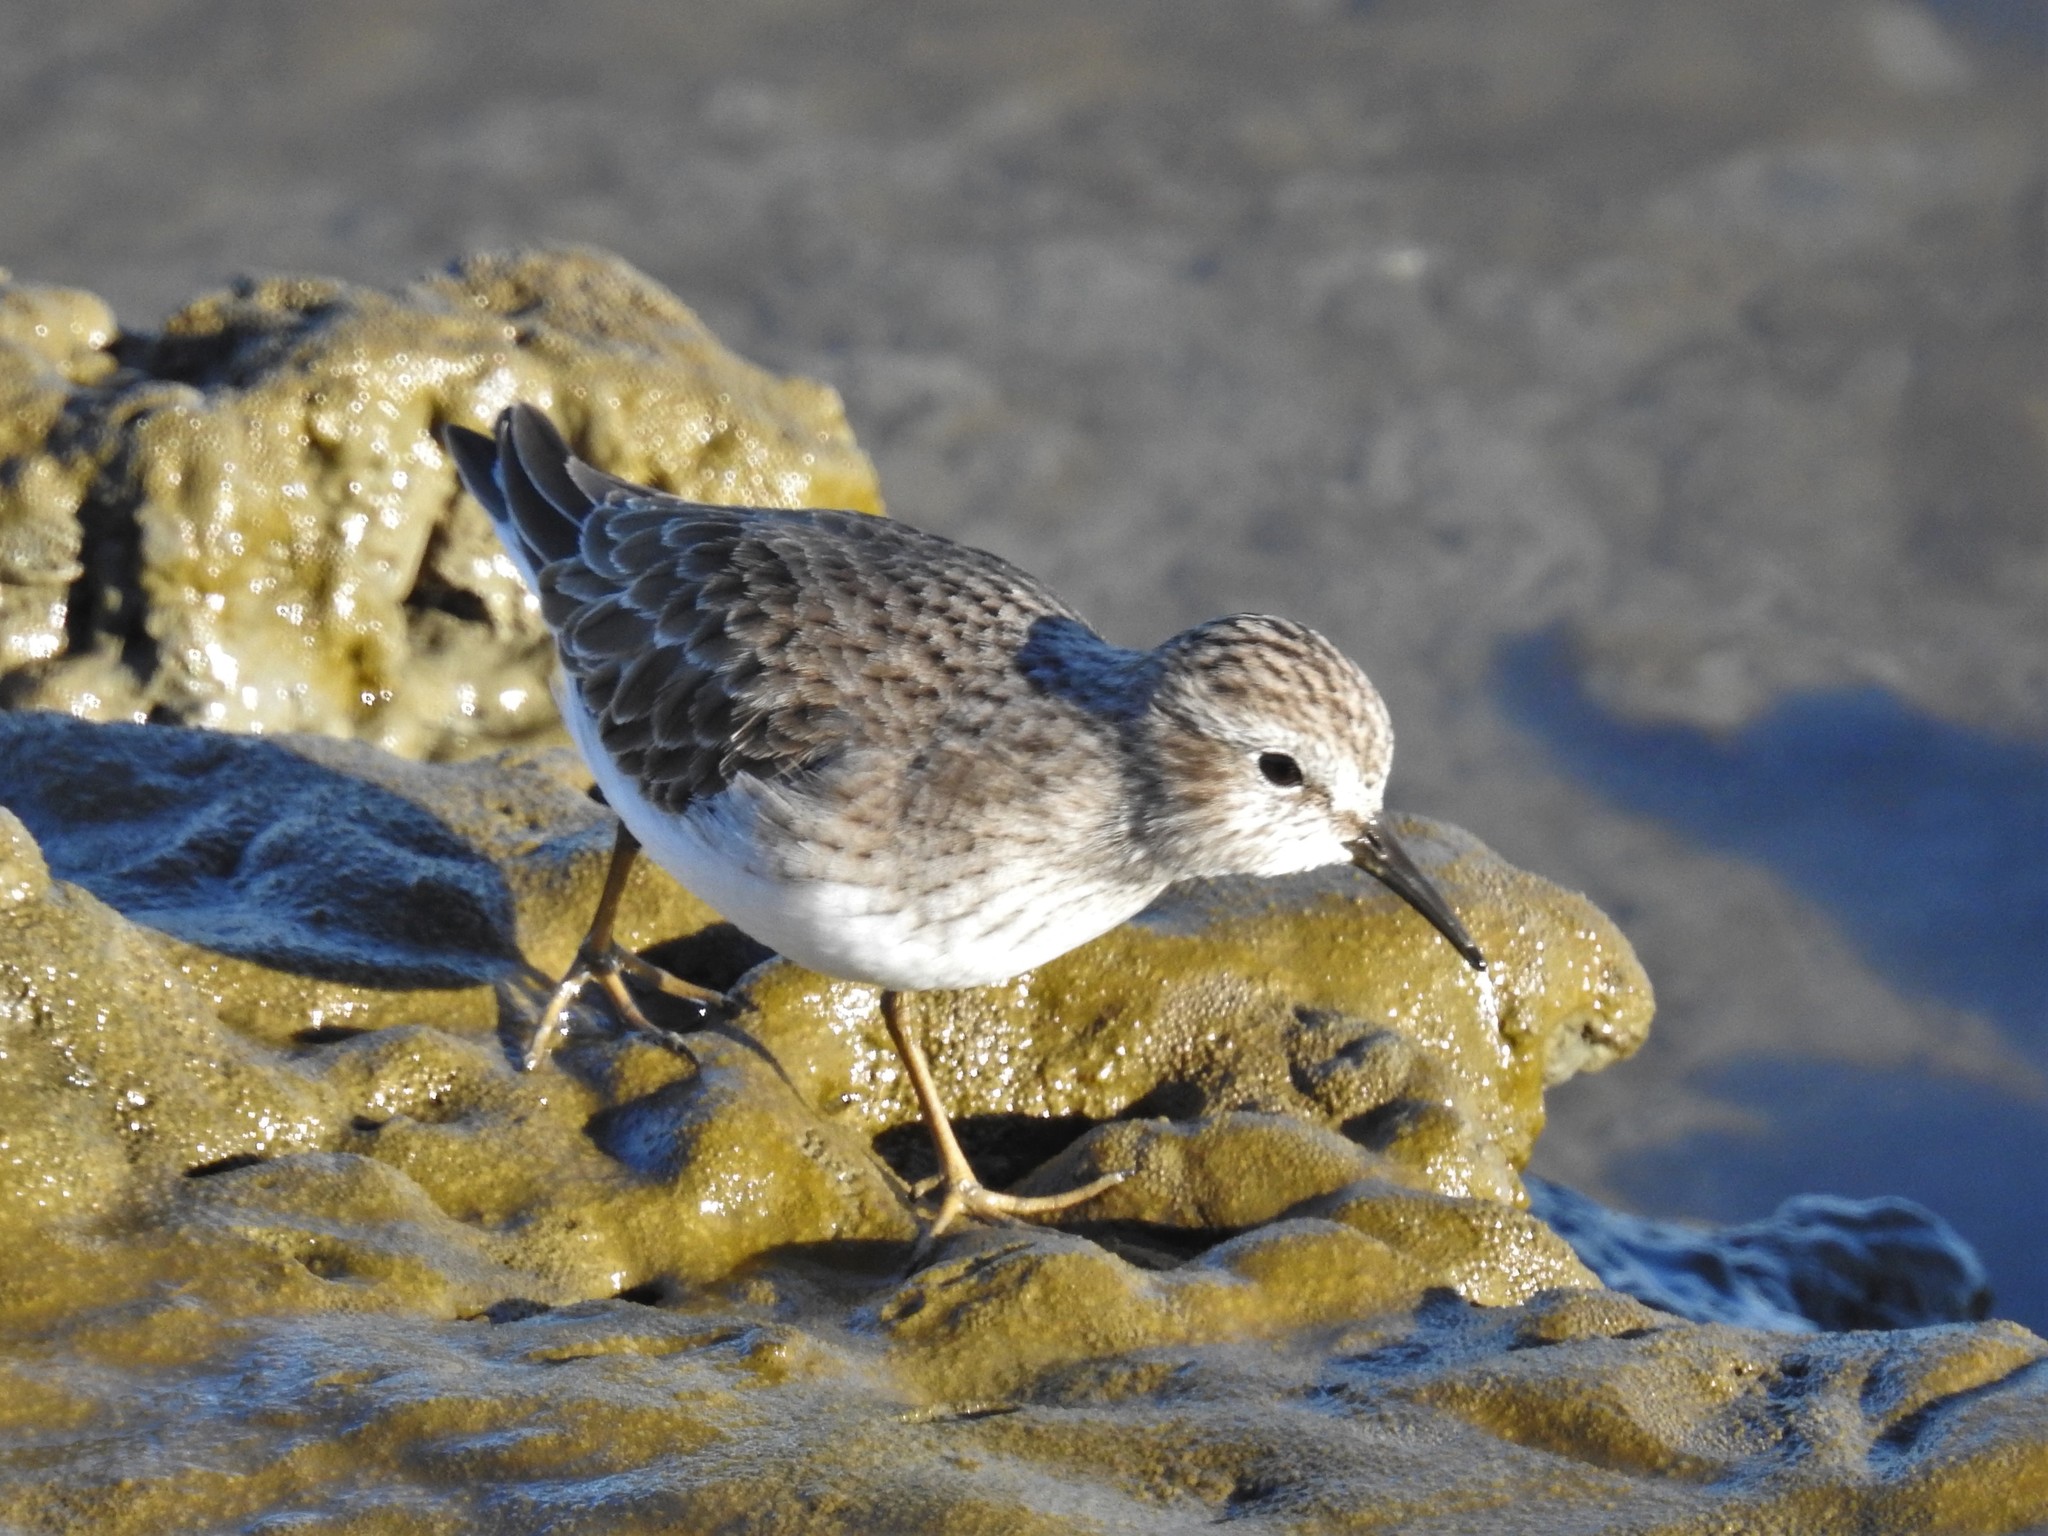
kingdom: Animalia
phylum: Chordata
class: Aves
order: Charadriiformes
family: Scolopacidae
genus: Calidris
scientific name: Calidris minutilla
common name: Least sandpiper
